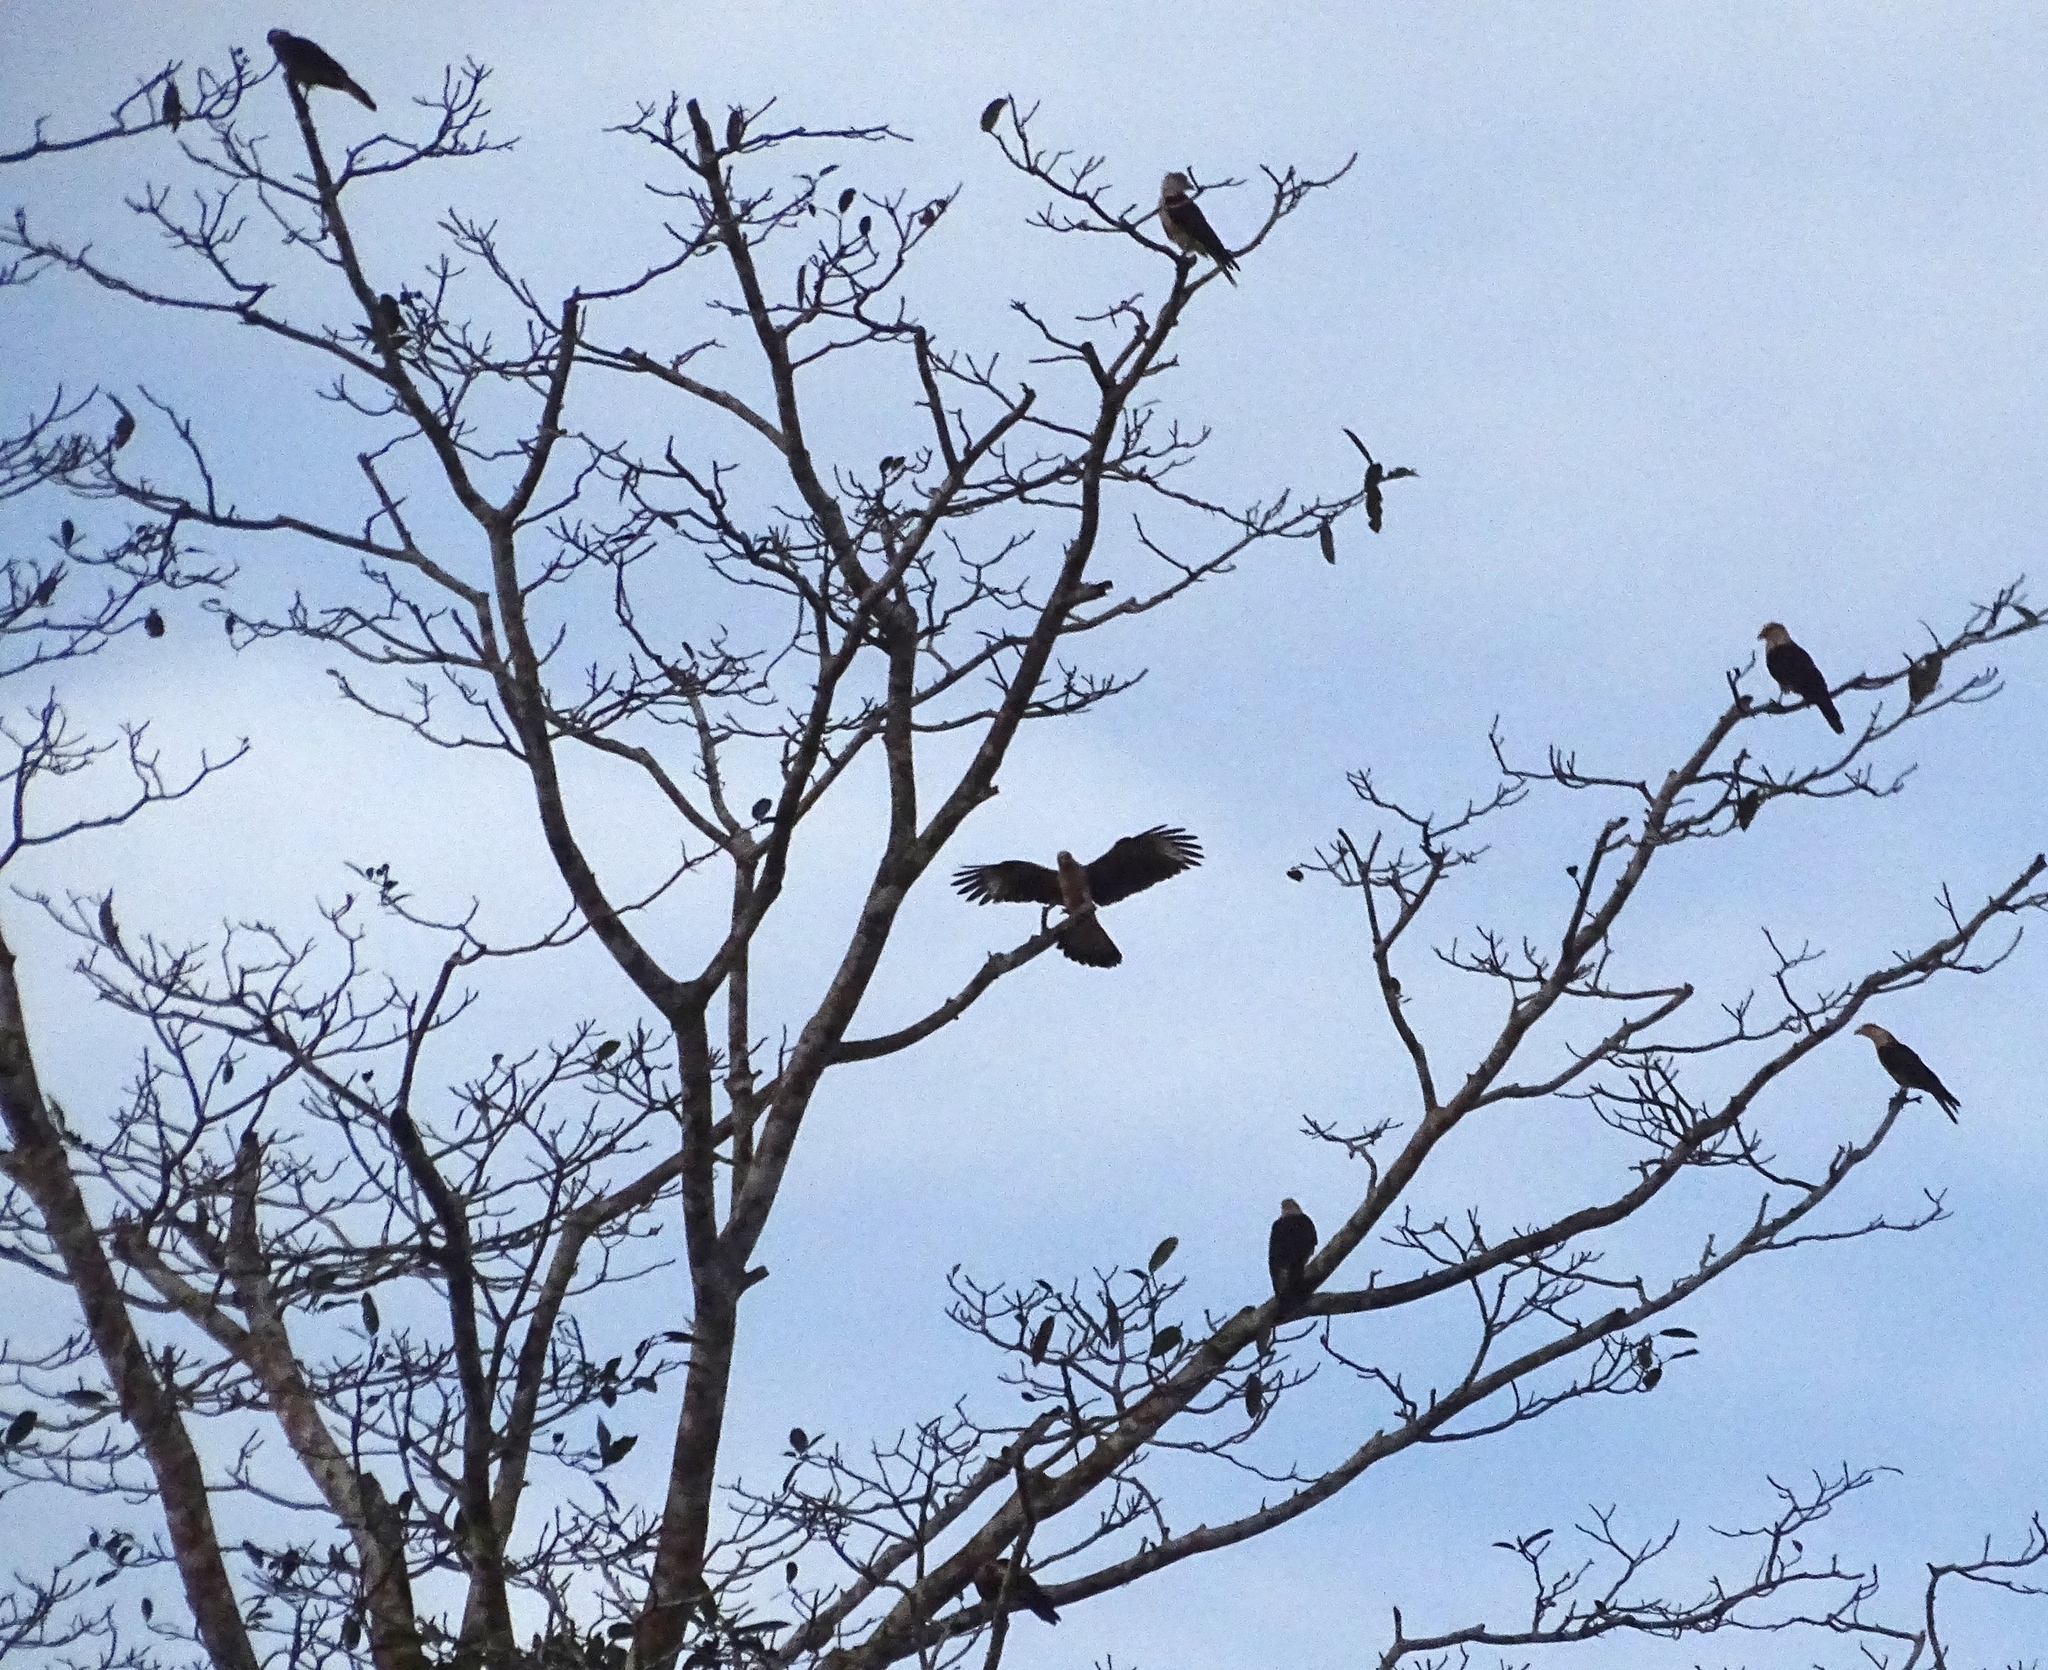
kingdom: Animalia
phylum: Chordata
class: Aves
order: Falconiformes
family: Falconidae
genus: Daptrius
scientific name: Daptrius
